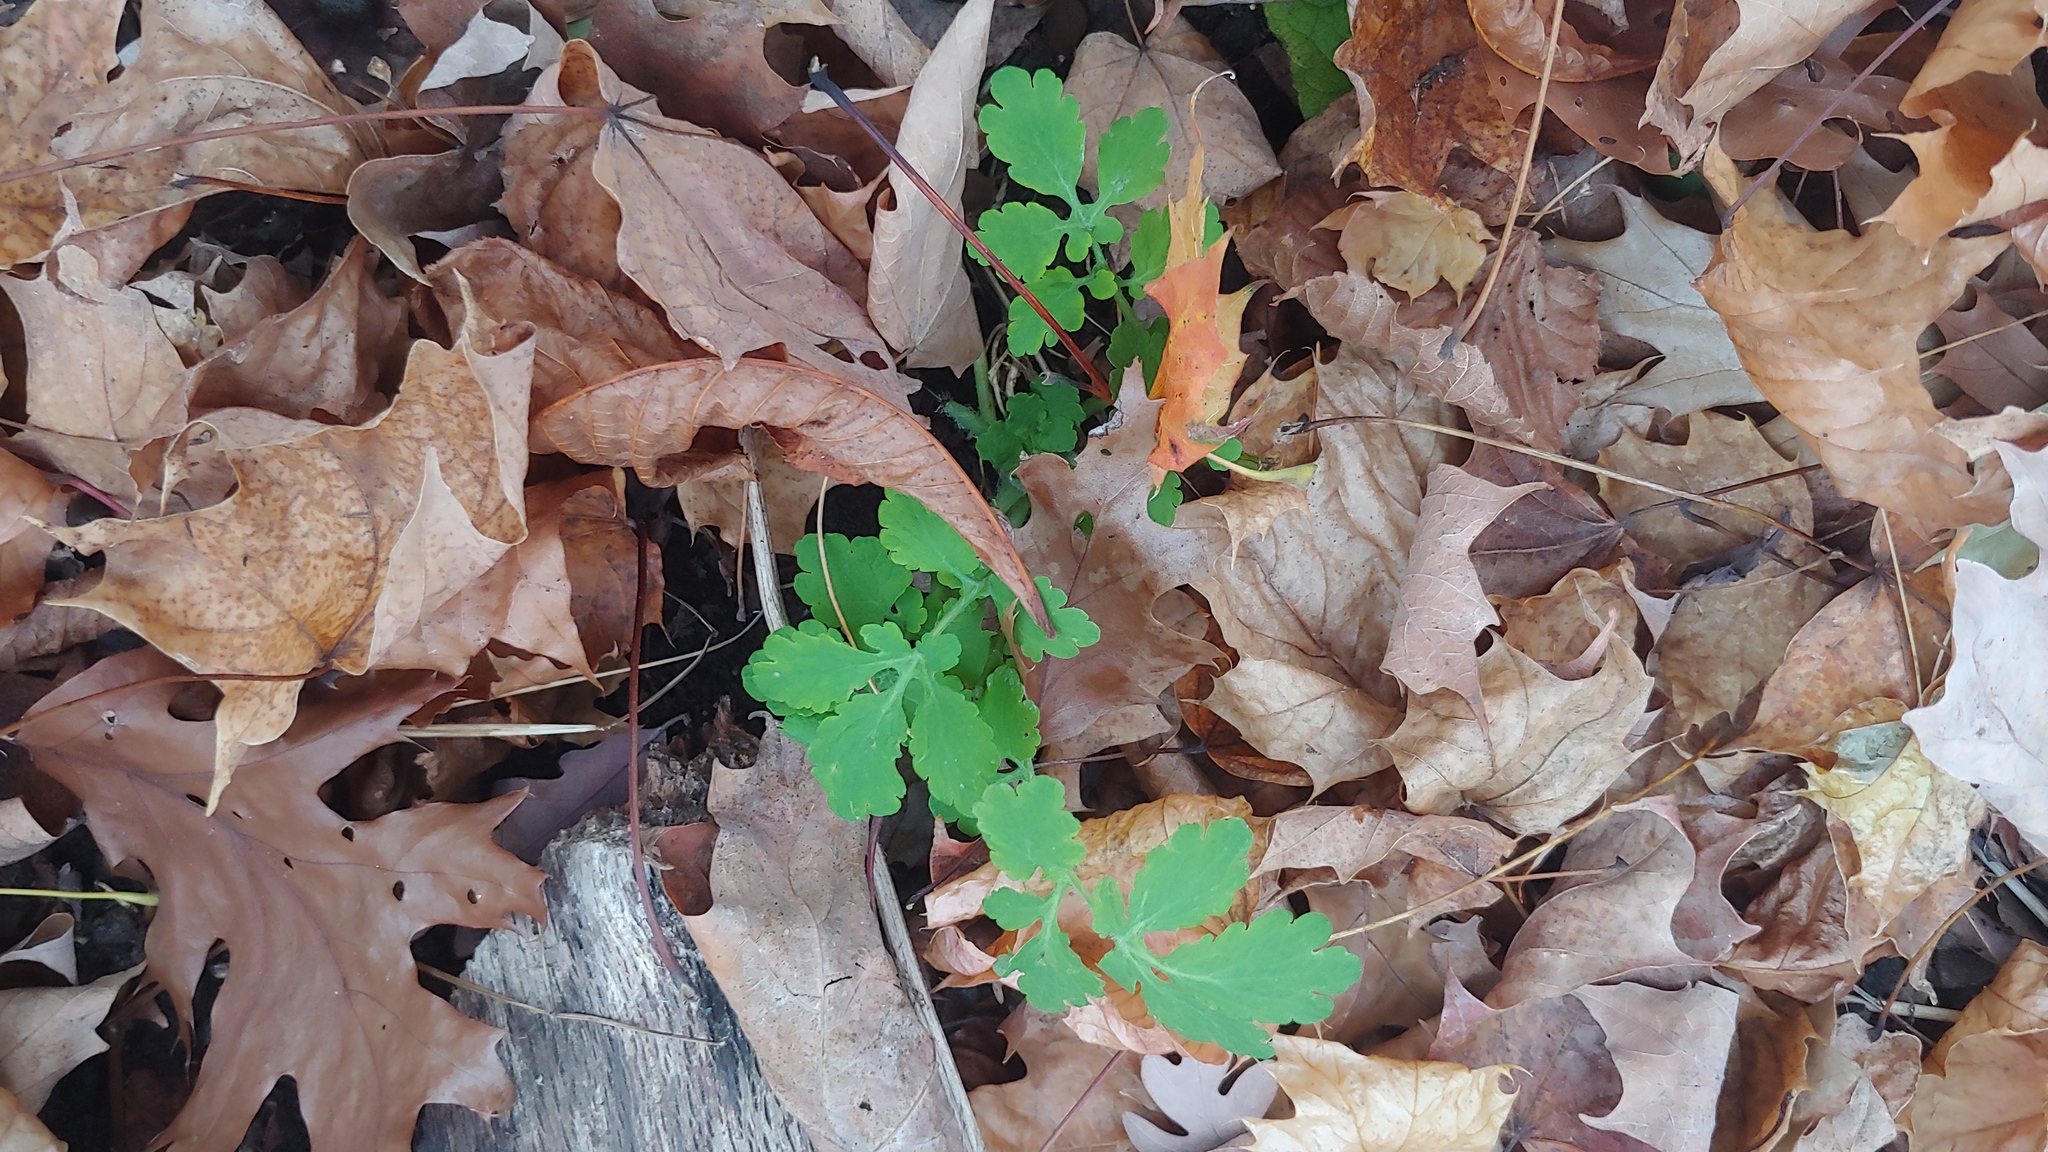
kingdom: Plantae
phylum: Tracheophyta
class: Magnoliopsida
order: Ranunculales
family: Papaveraceae
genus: Chelidonium
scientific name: Chelidonium majus
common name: Greater celandine
